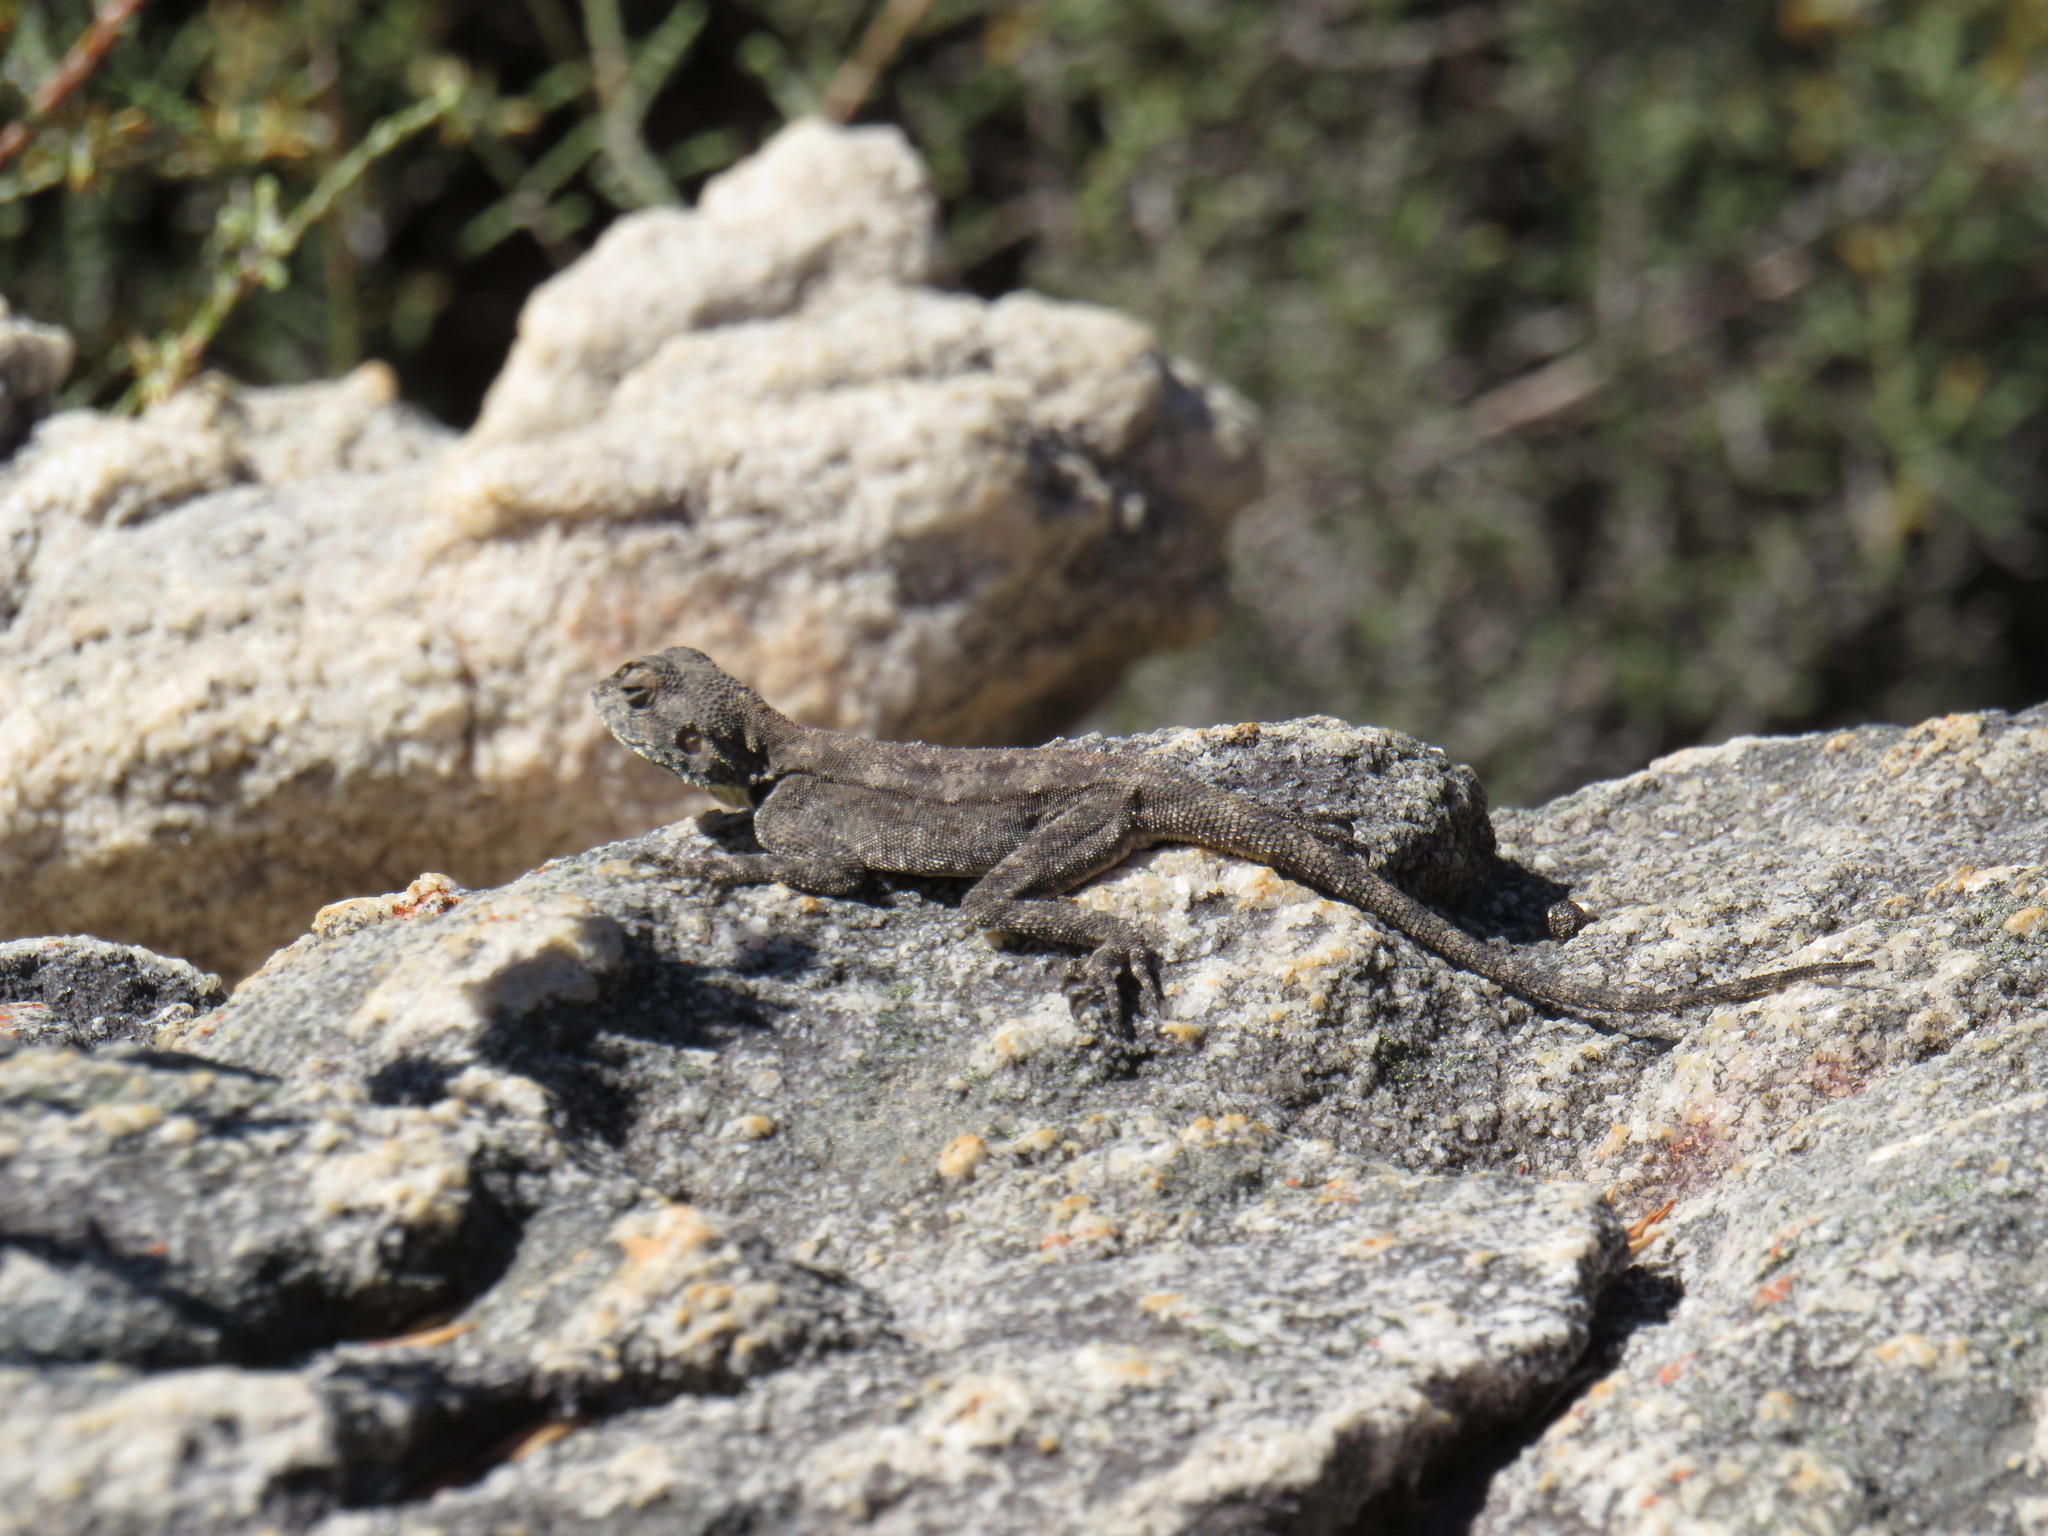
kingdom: Animalia
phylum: Chordata
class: Squamata
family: Agamidae
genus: Agama
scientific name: Agama atra
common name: Southern african rock agama
